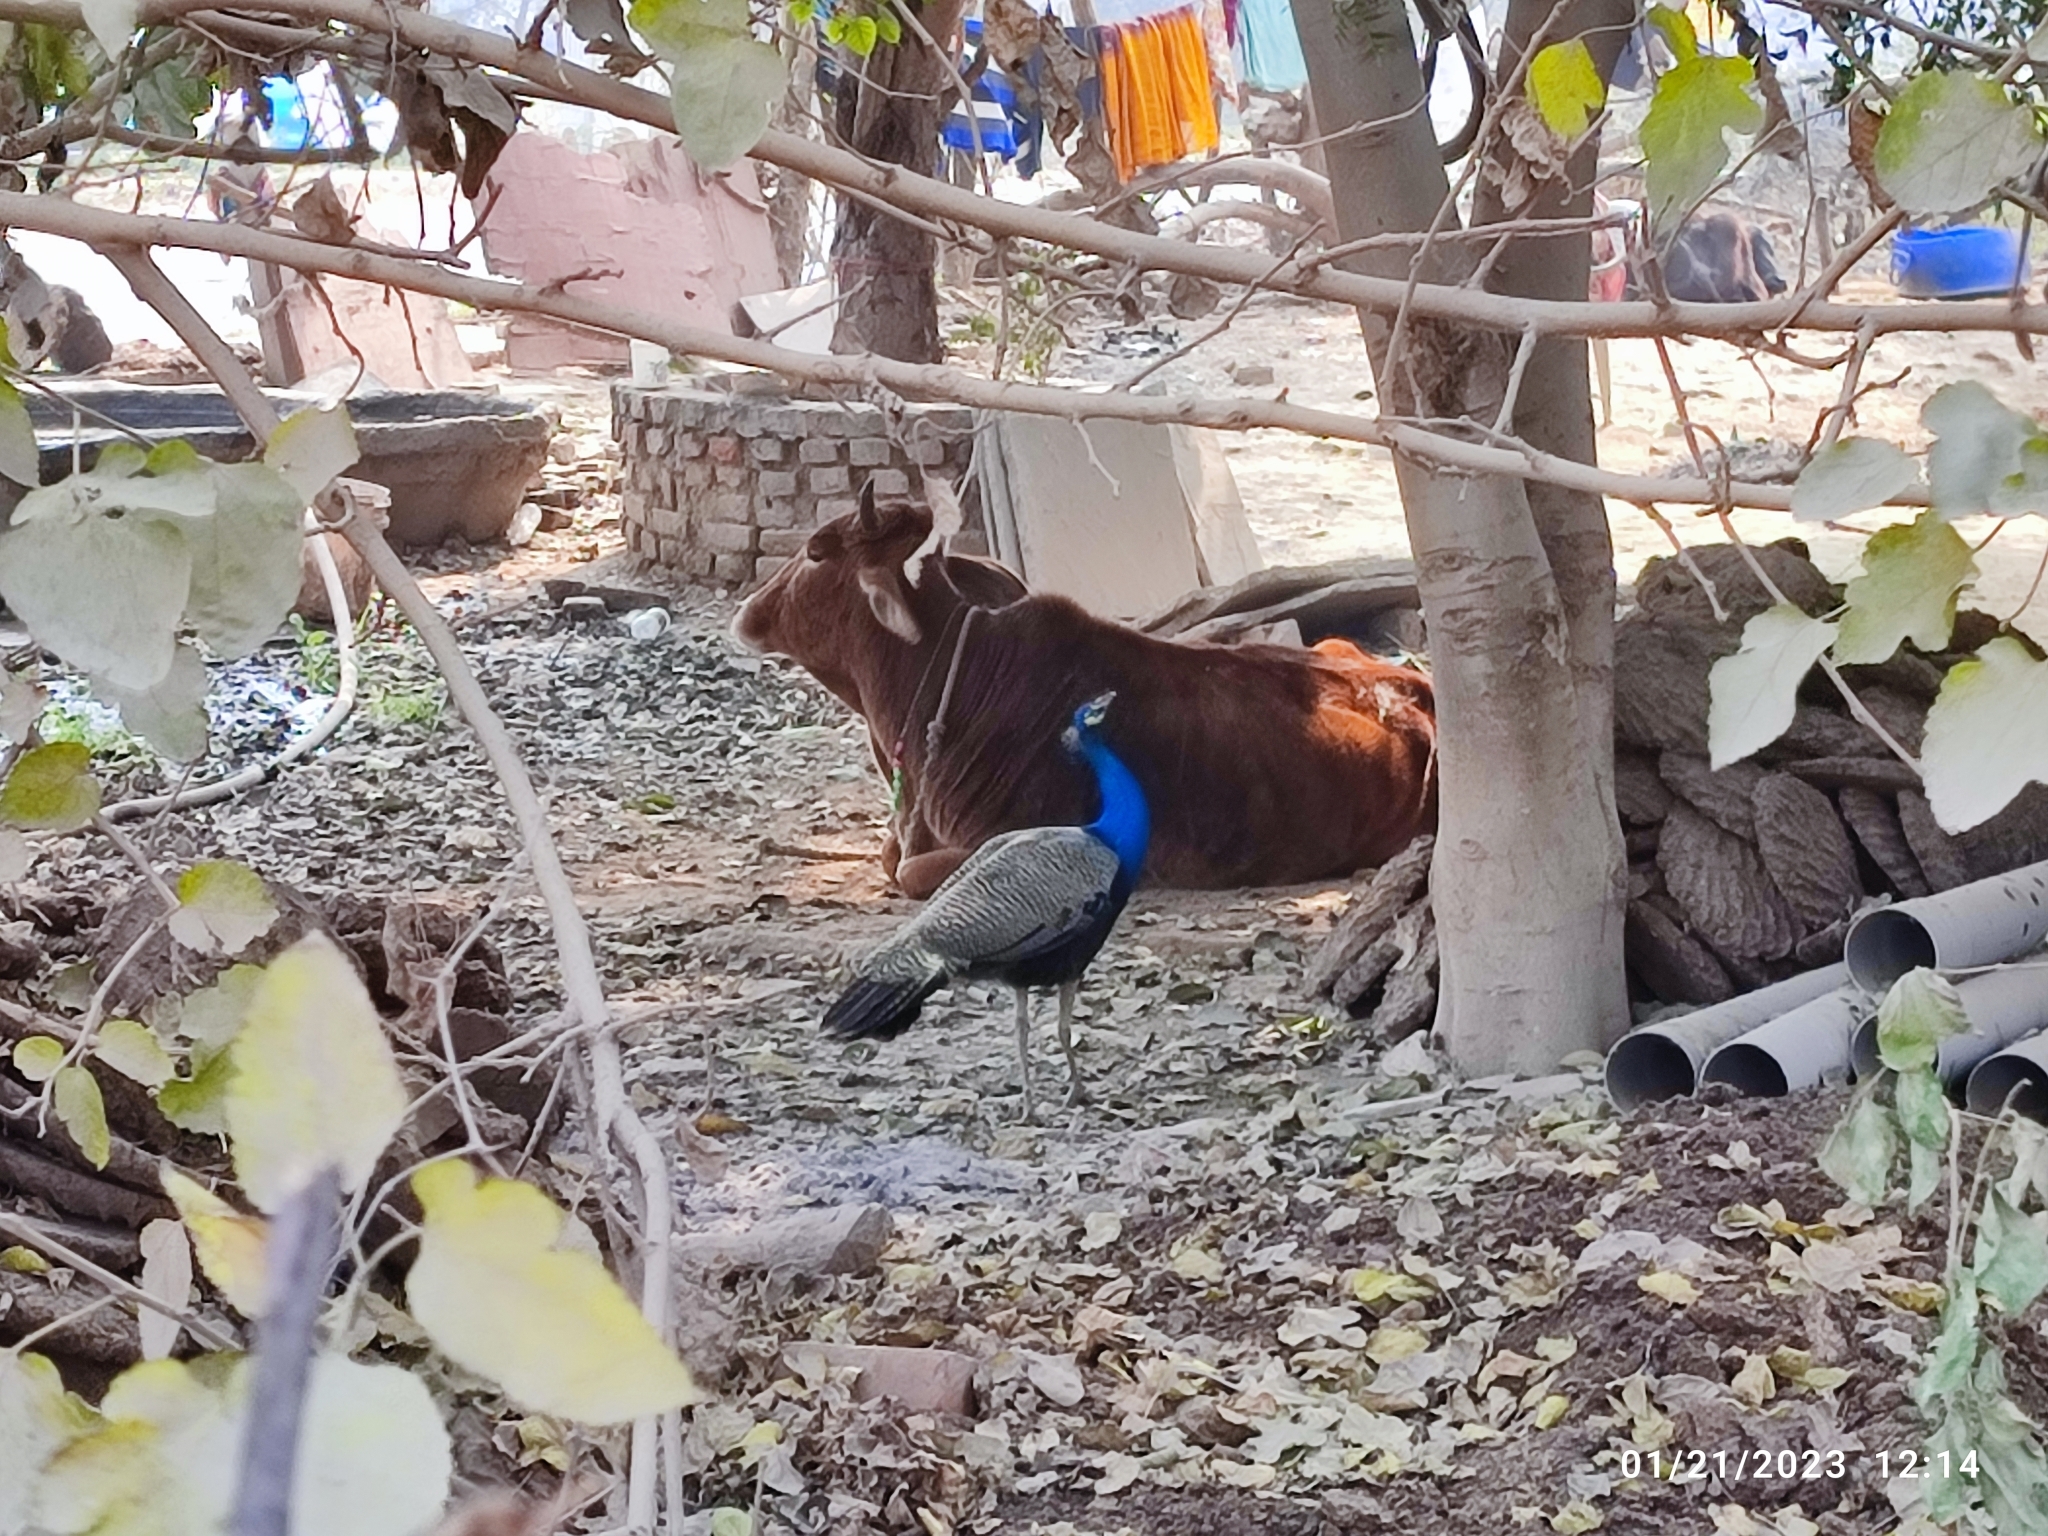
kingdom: Animalia
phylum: Chordata
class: Aves
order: Galliformes
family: Phasianidae
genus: Pavo
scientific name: Pavo cristatus
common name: Indian peafowl
